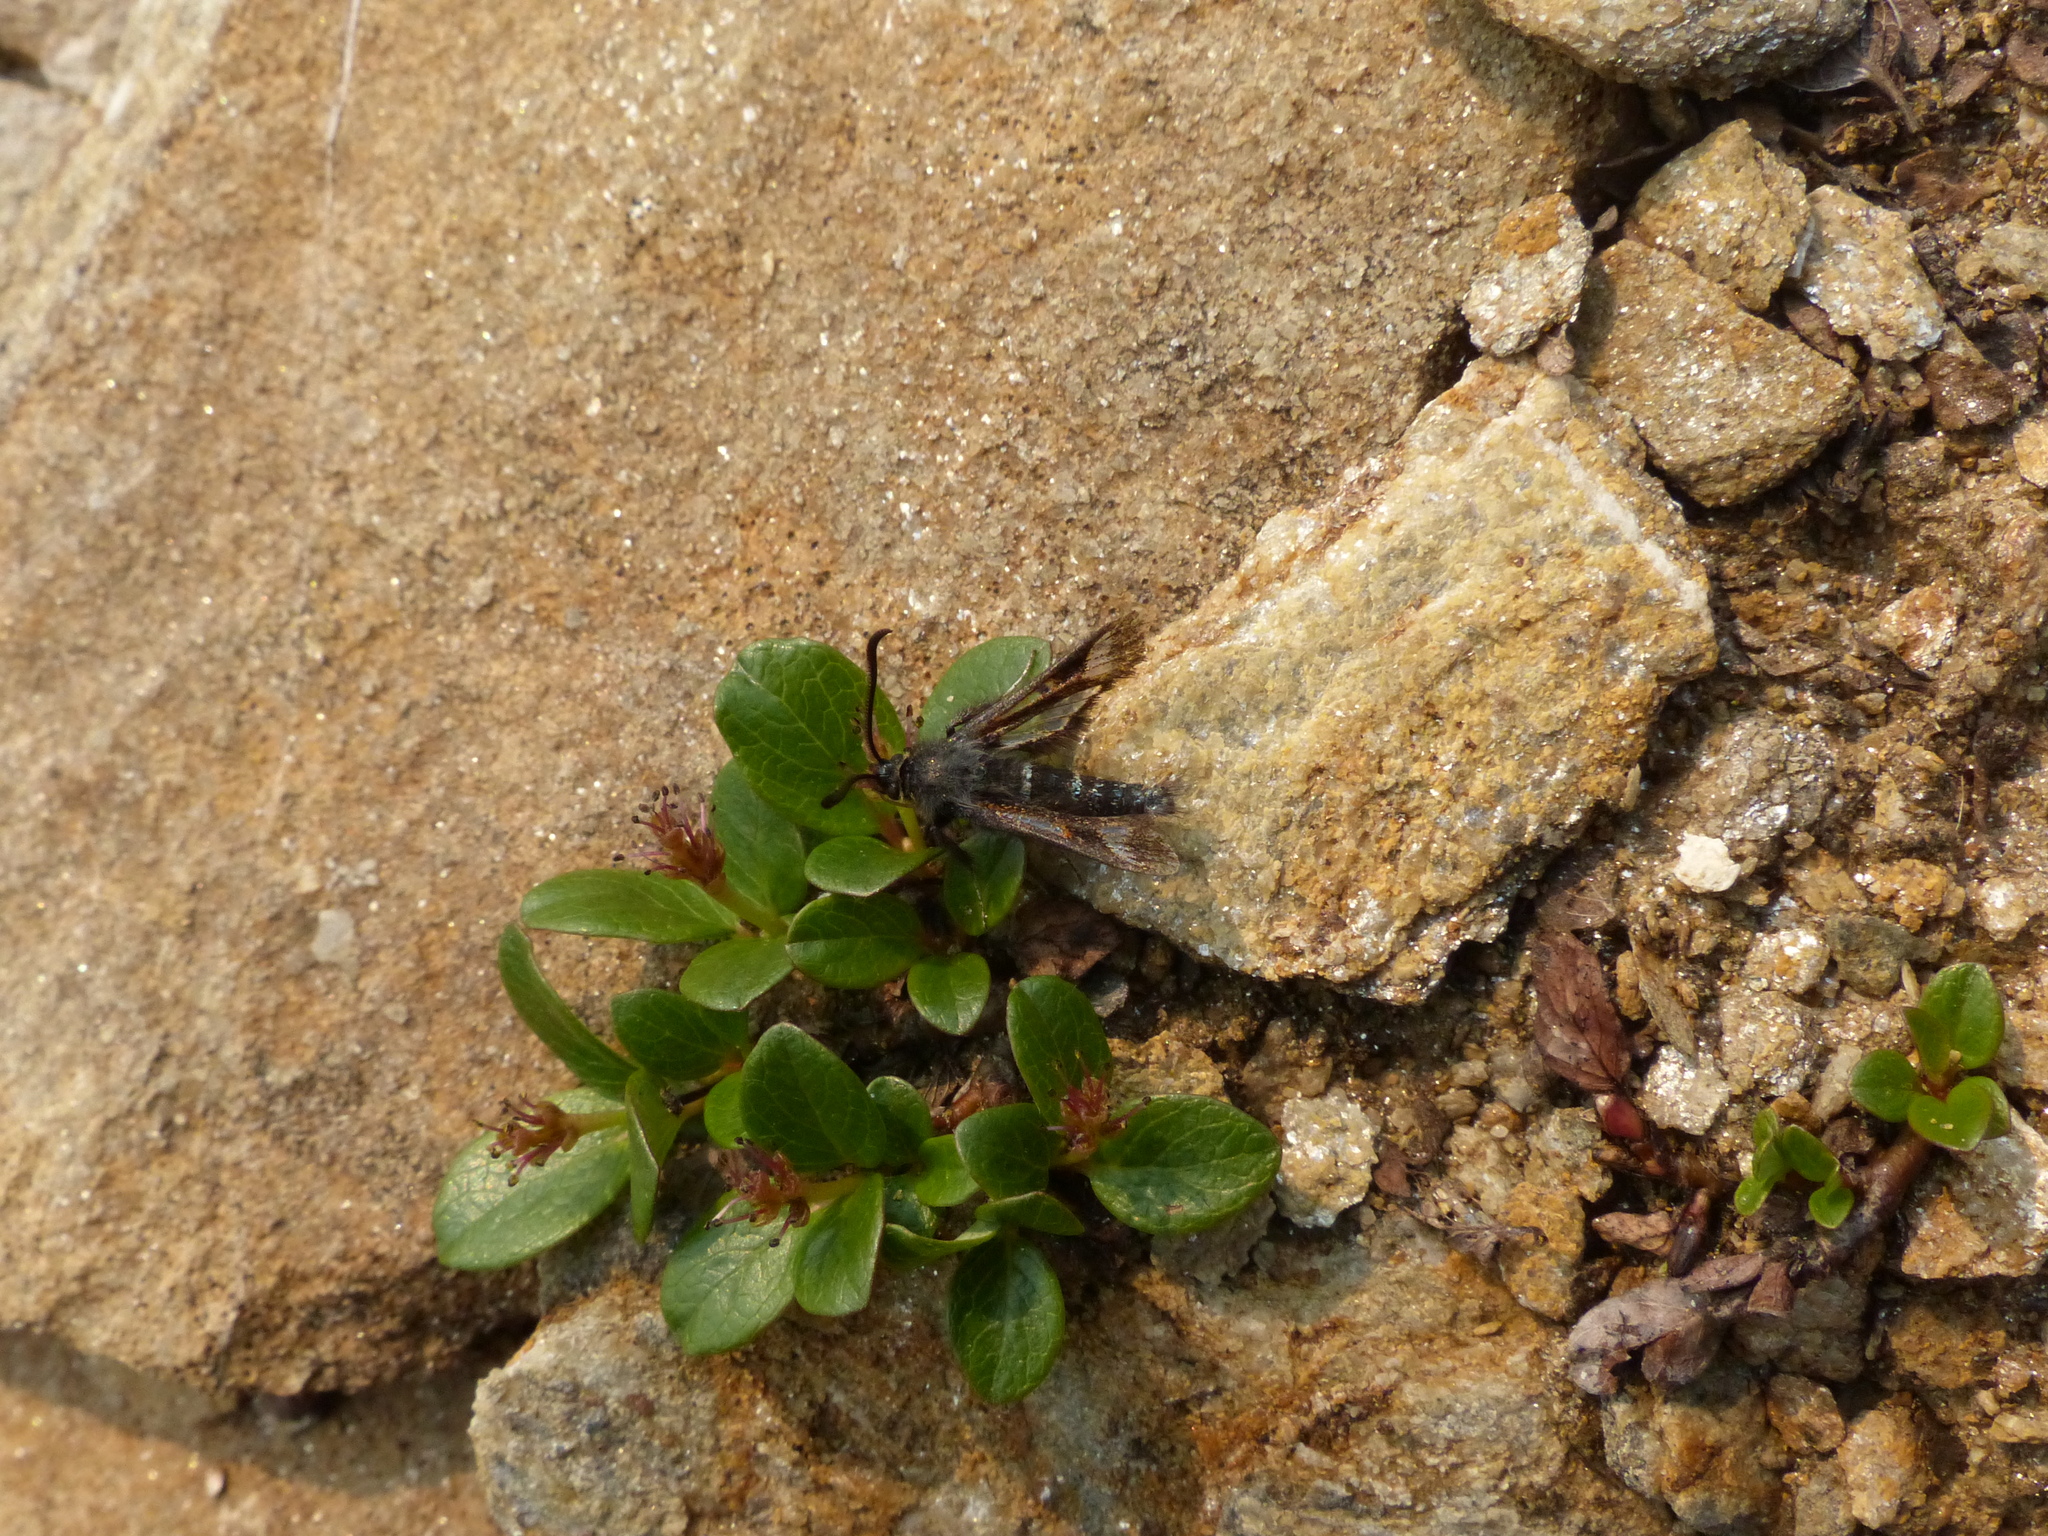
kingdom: Plantae
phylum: Tracheophyta
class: Magnoliopsida
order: Malpighiales
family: Salicaceae
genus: Salix
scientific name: Salix nivalis
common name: Dwarf snow willow
